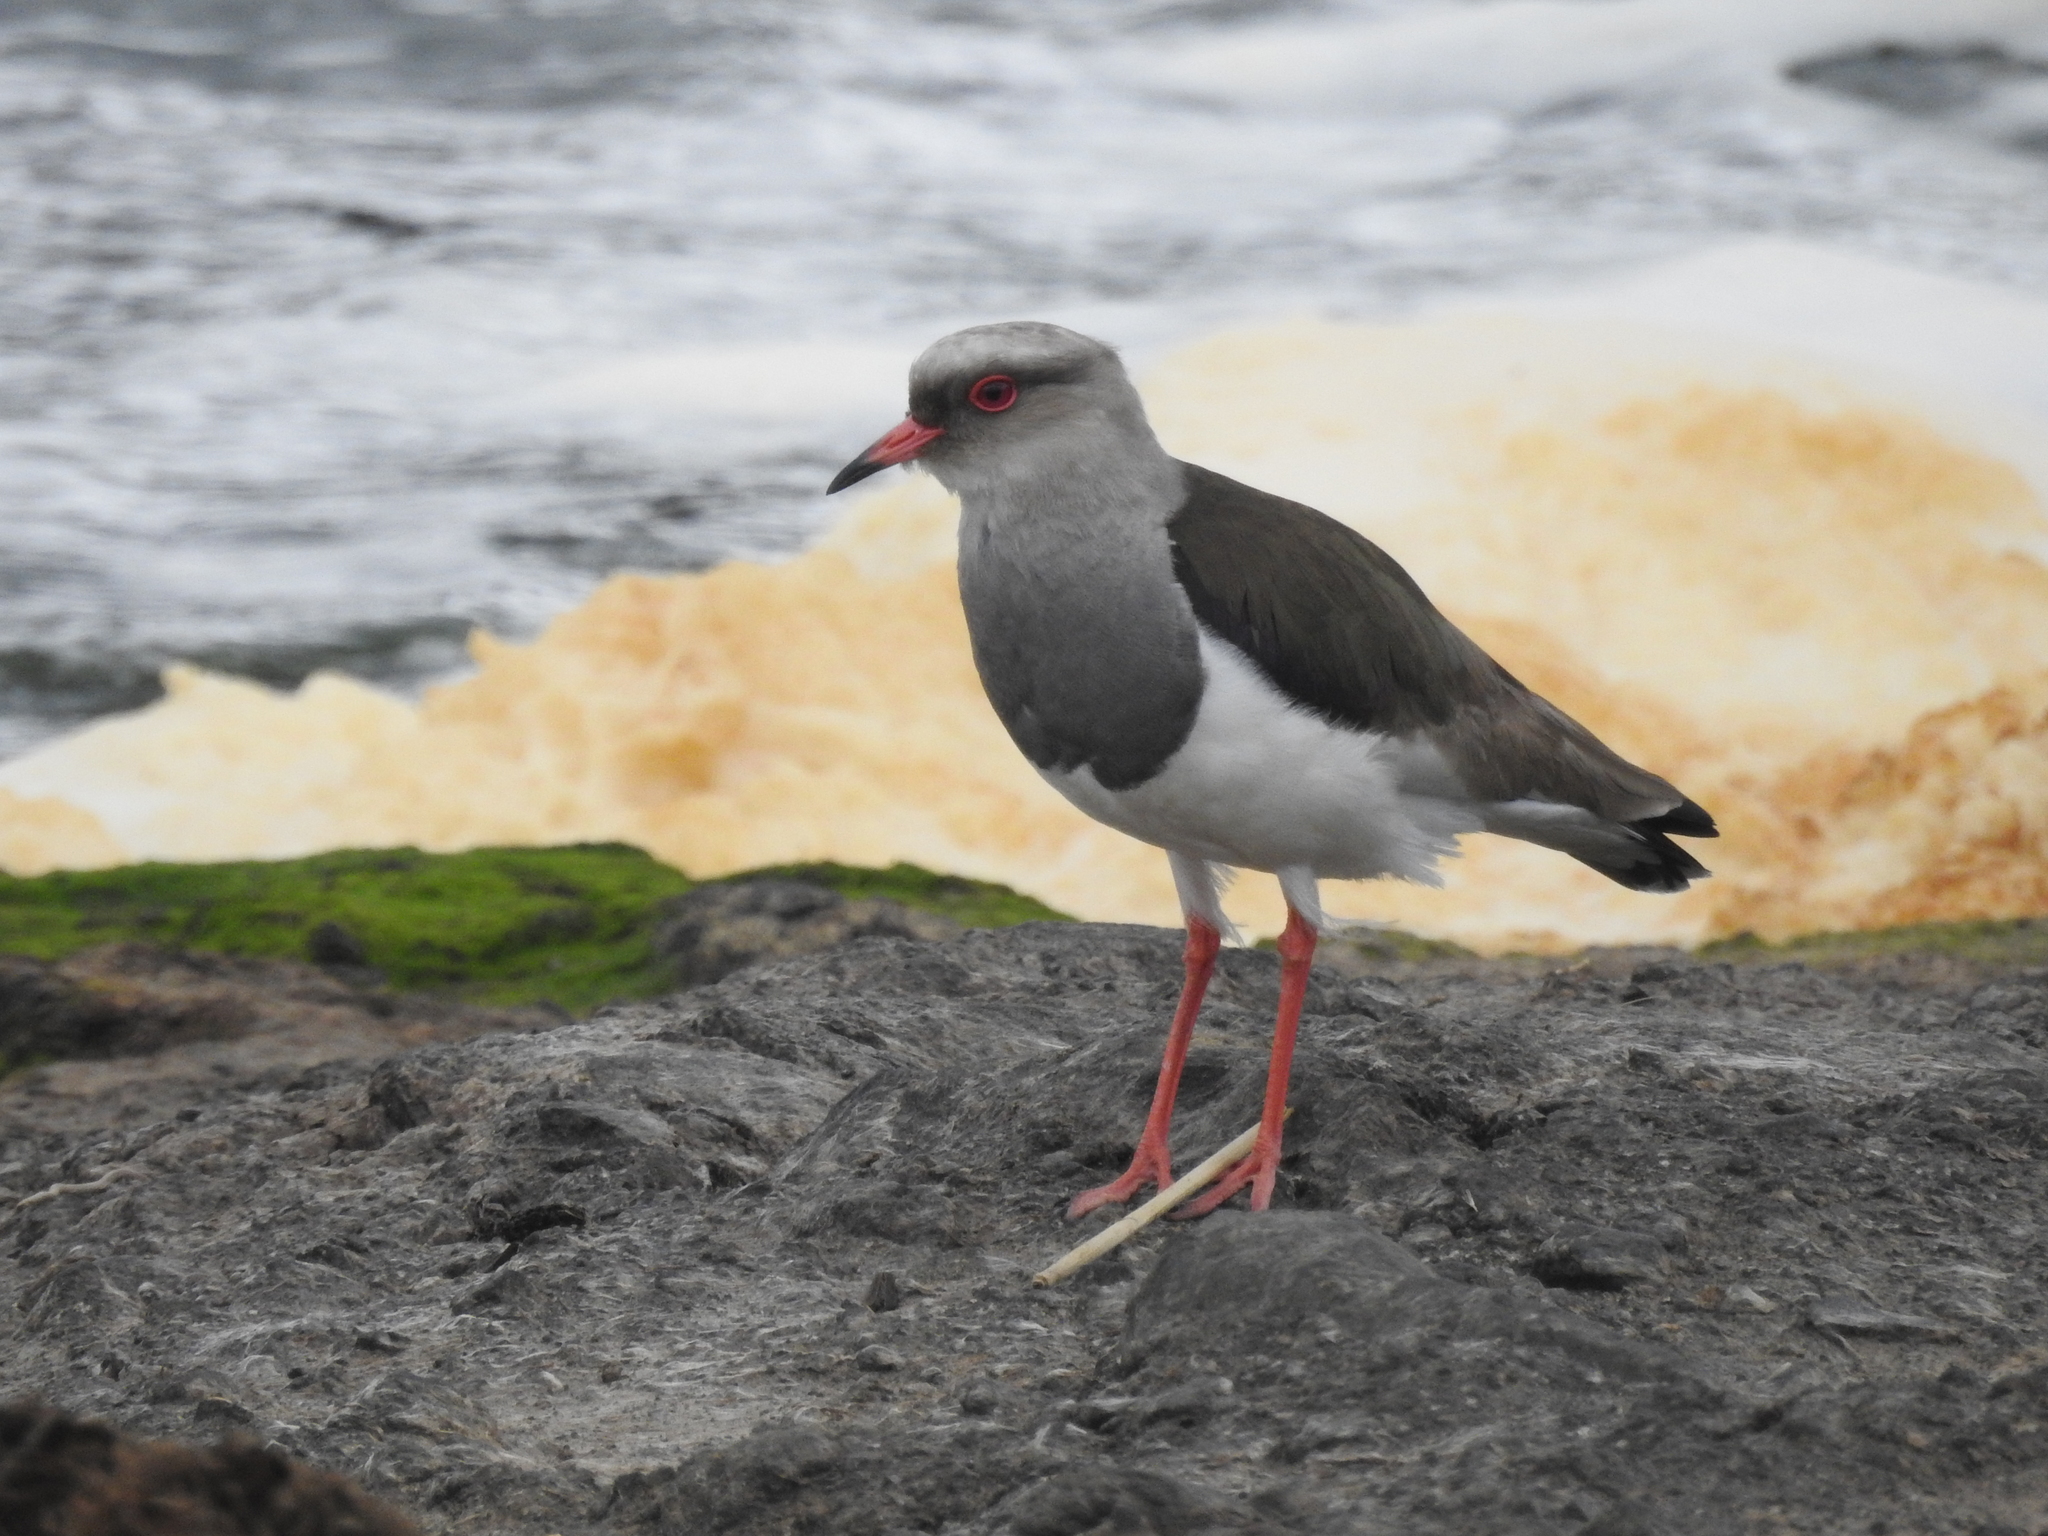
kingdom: Animalia
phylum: Chordata
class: Aves
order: Charadriiformes
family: Charadriidae
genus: Vanellus
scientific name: Vanellus resplendens
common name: Andean lapwing
